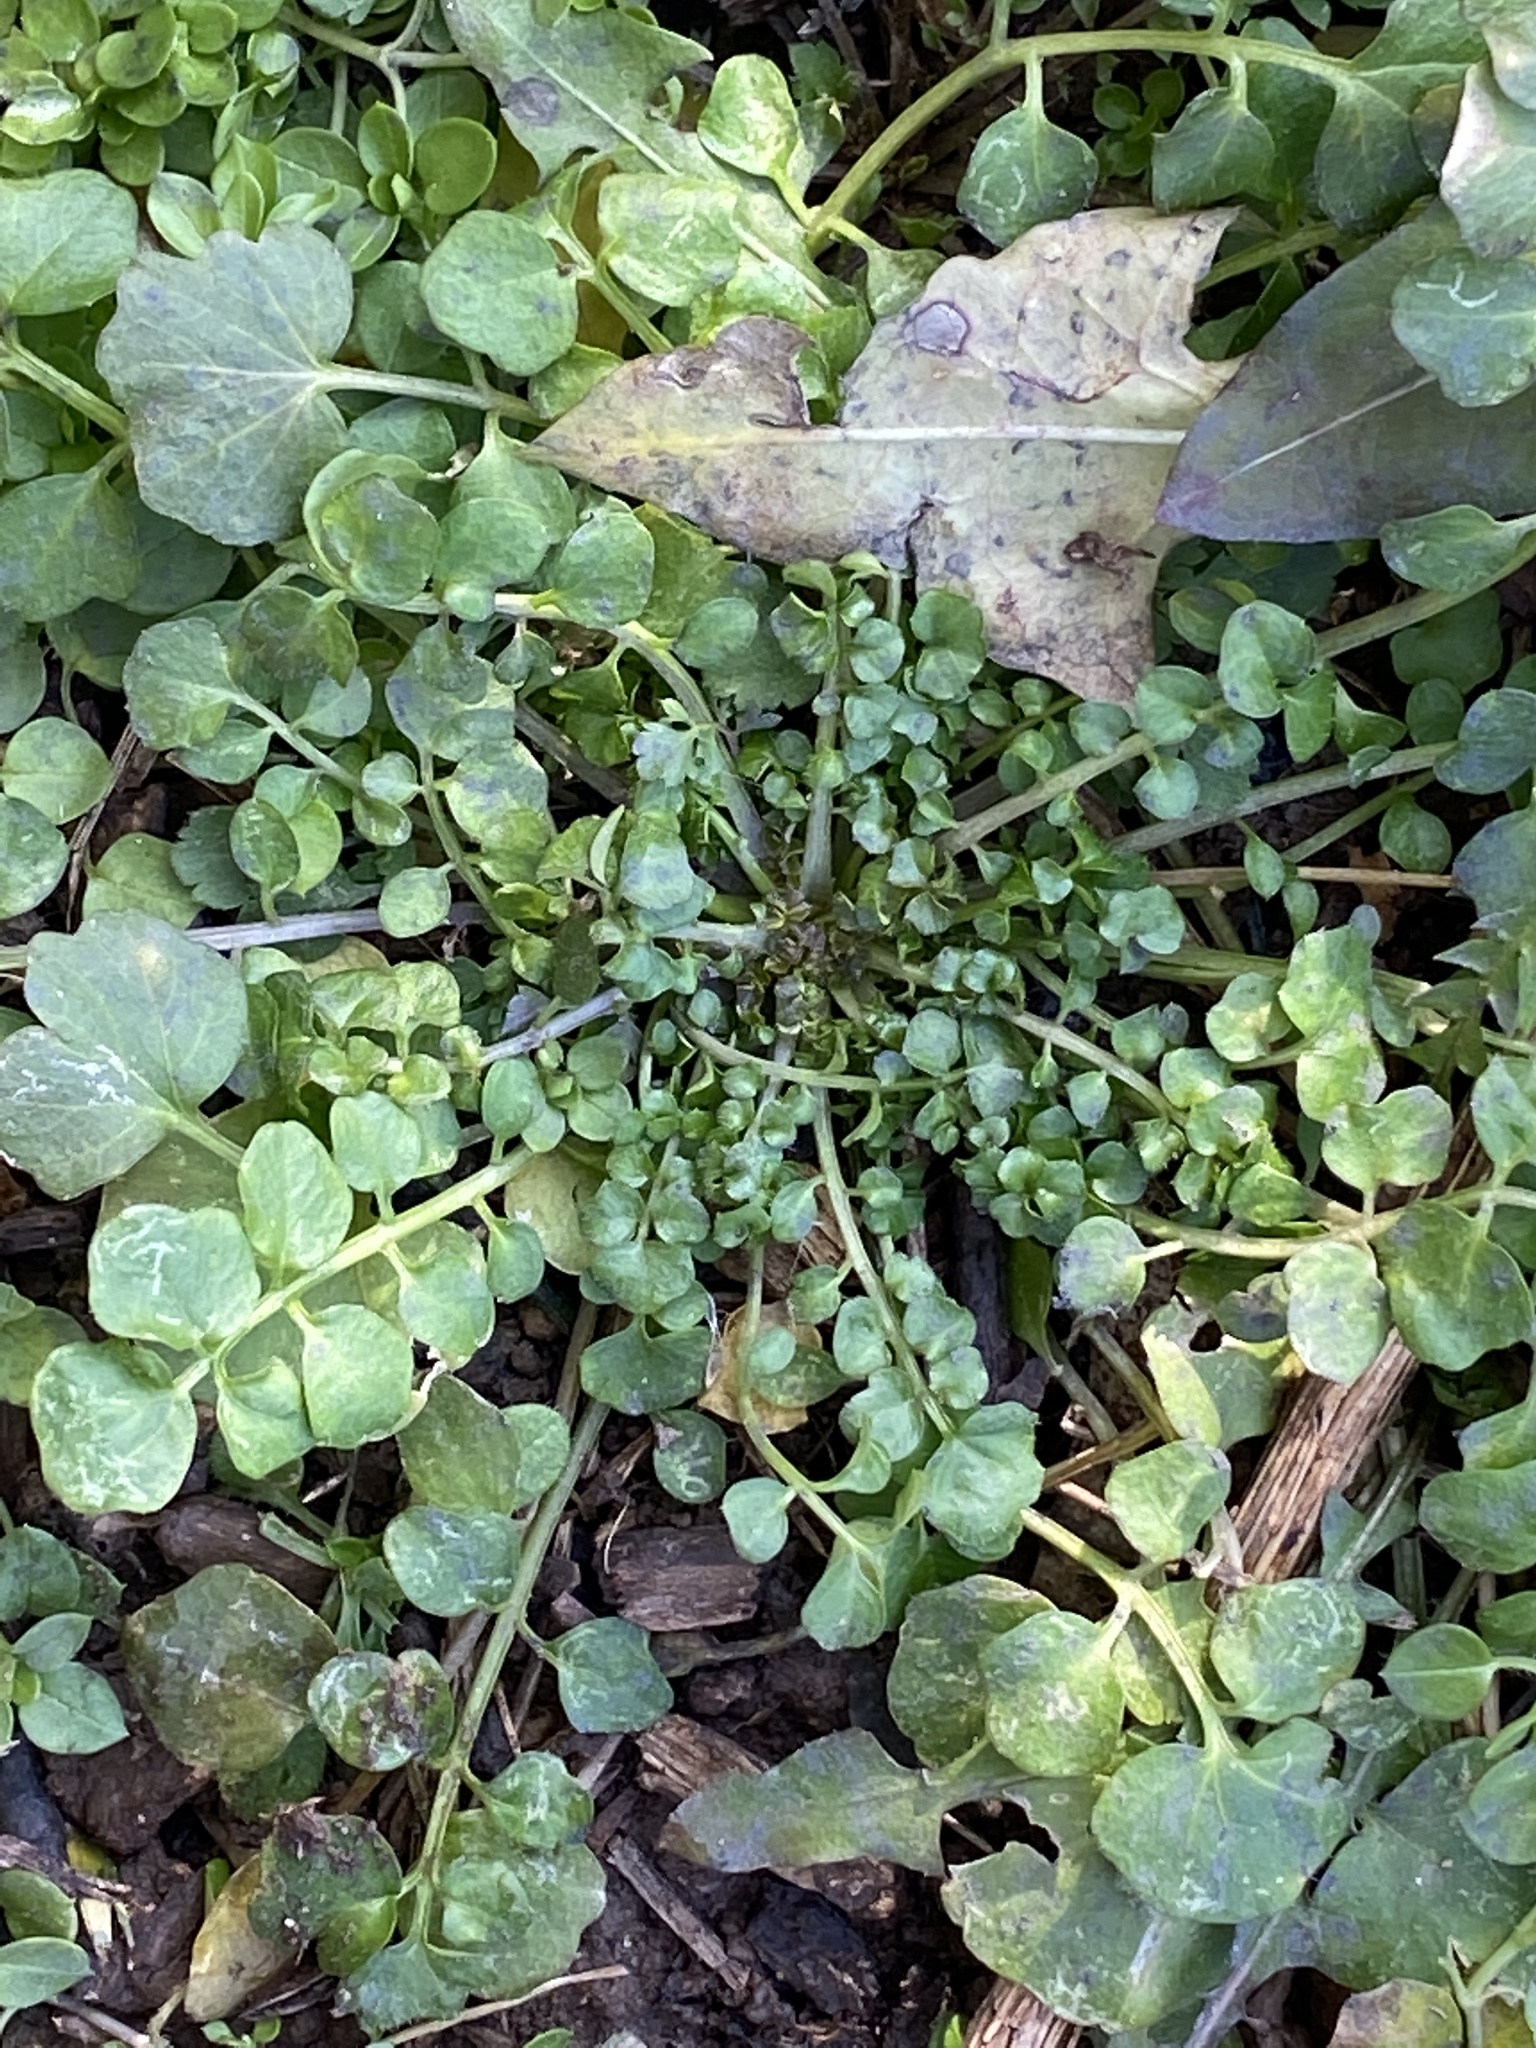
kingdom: Plantae
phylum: Tracheophyta
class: Magnoliopsida
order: Brassicales
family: Brassicaceae
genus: Cardamine
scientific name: Cardamine hirsuta
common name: Hairy bittercress
